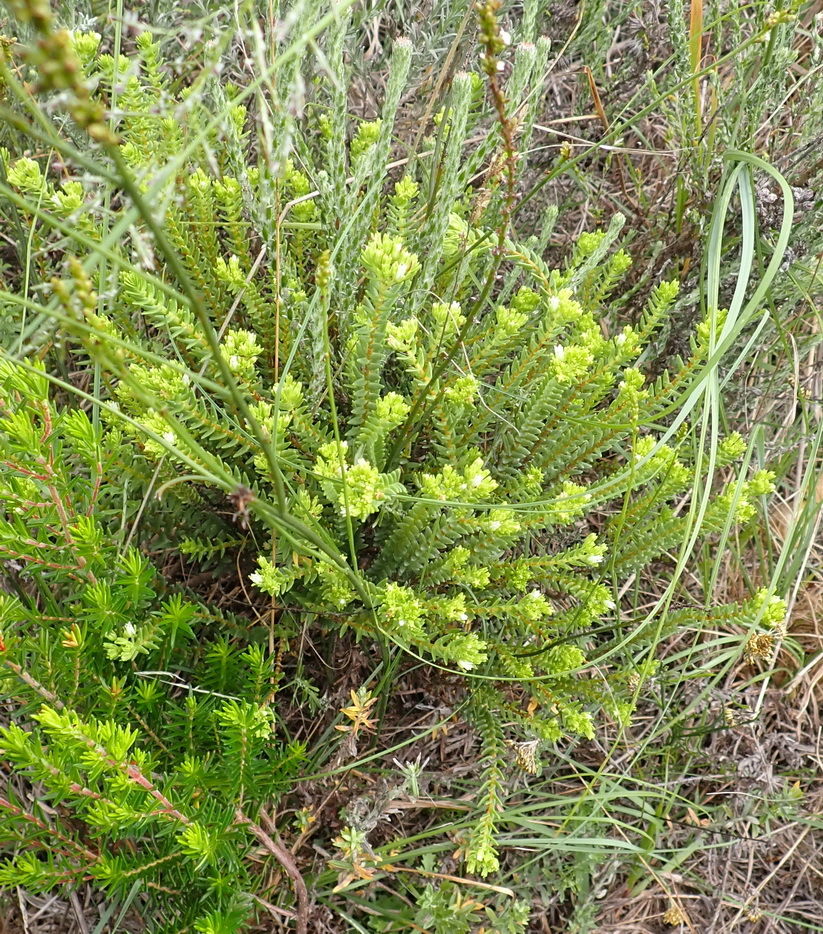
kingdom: Plantae
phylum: Tracheophyta
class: Magnoliopsida
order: Saxifragales
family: Crassulaceae
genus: Crassula
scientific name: Crassula ericoides
